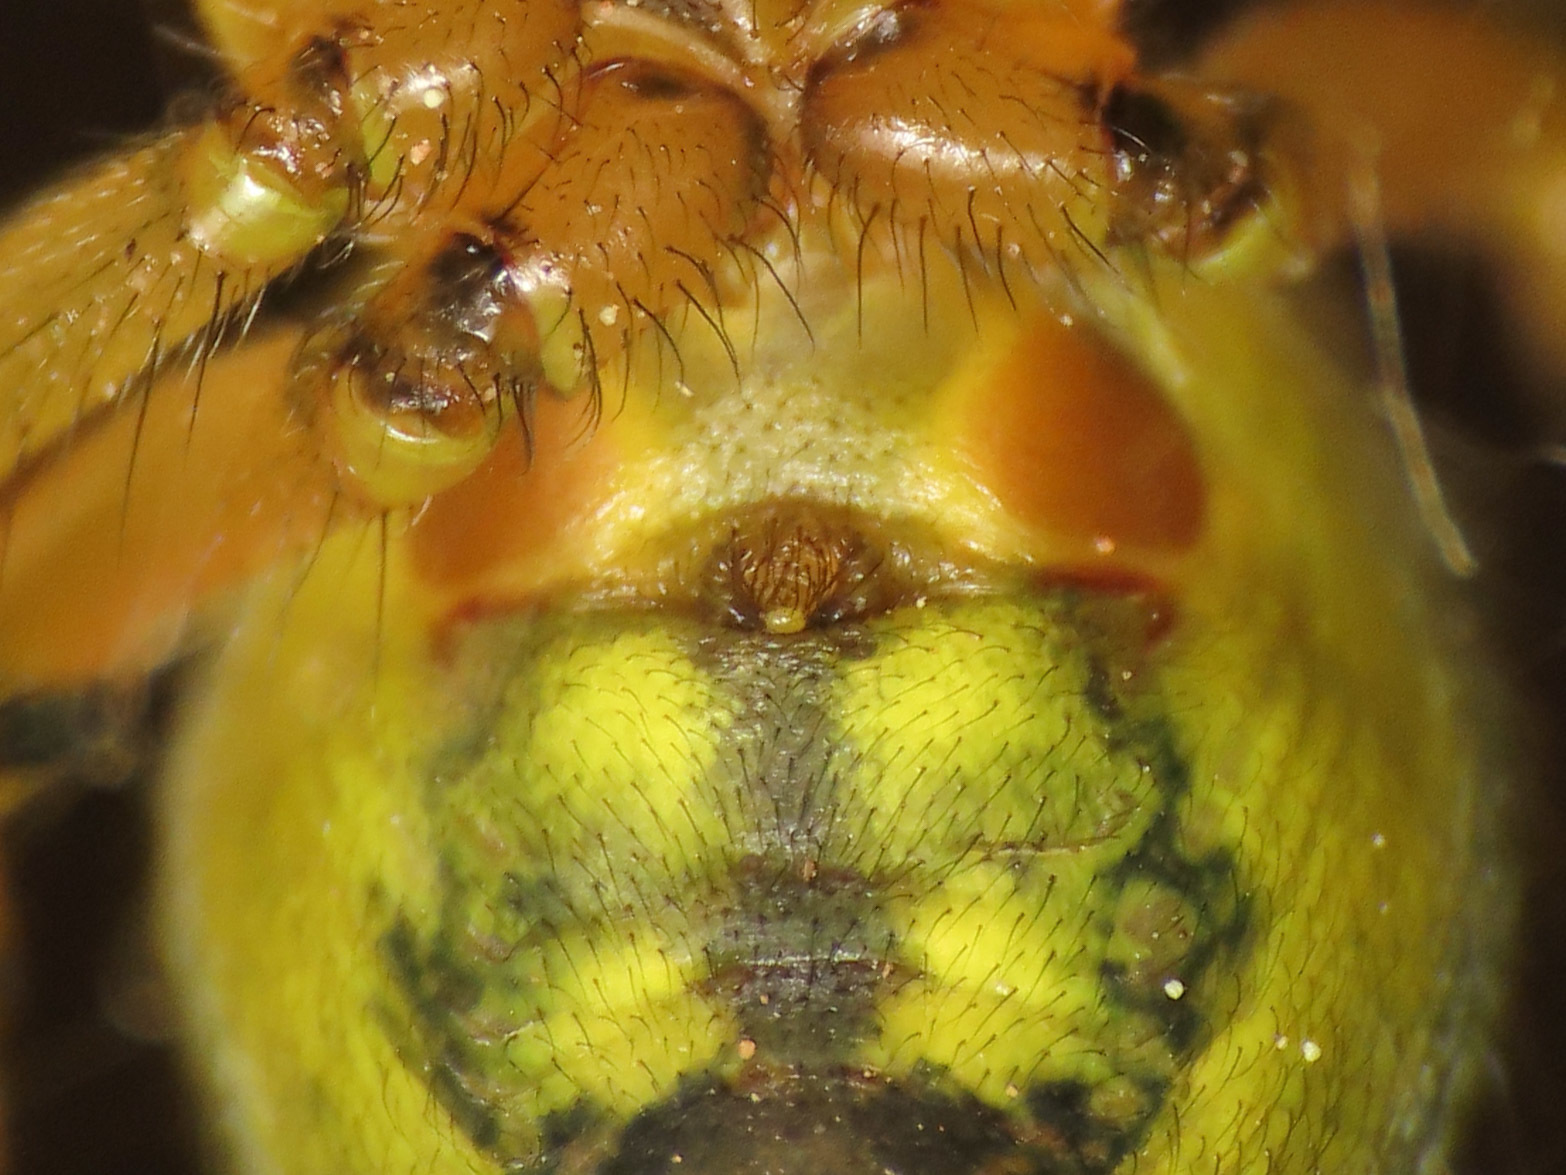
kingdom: Animalia
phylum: Arthropoda
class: Arachnida
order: Araneae
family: Araneidae
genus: Araniella
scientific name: Araniella alpica
